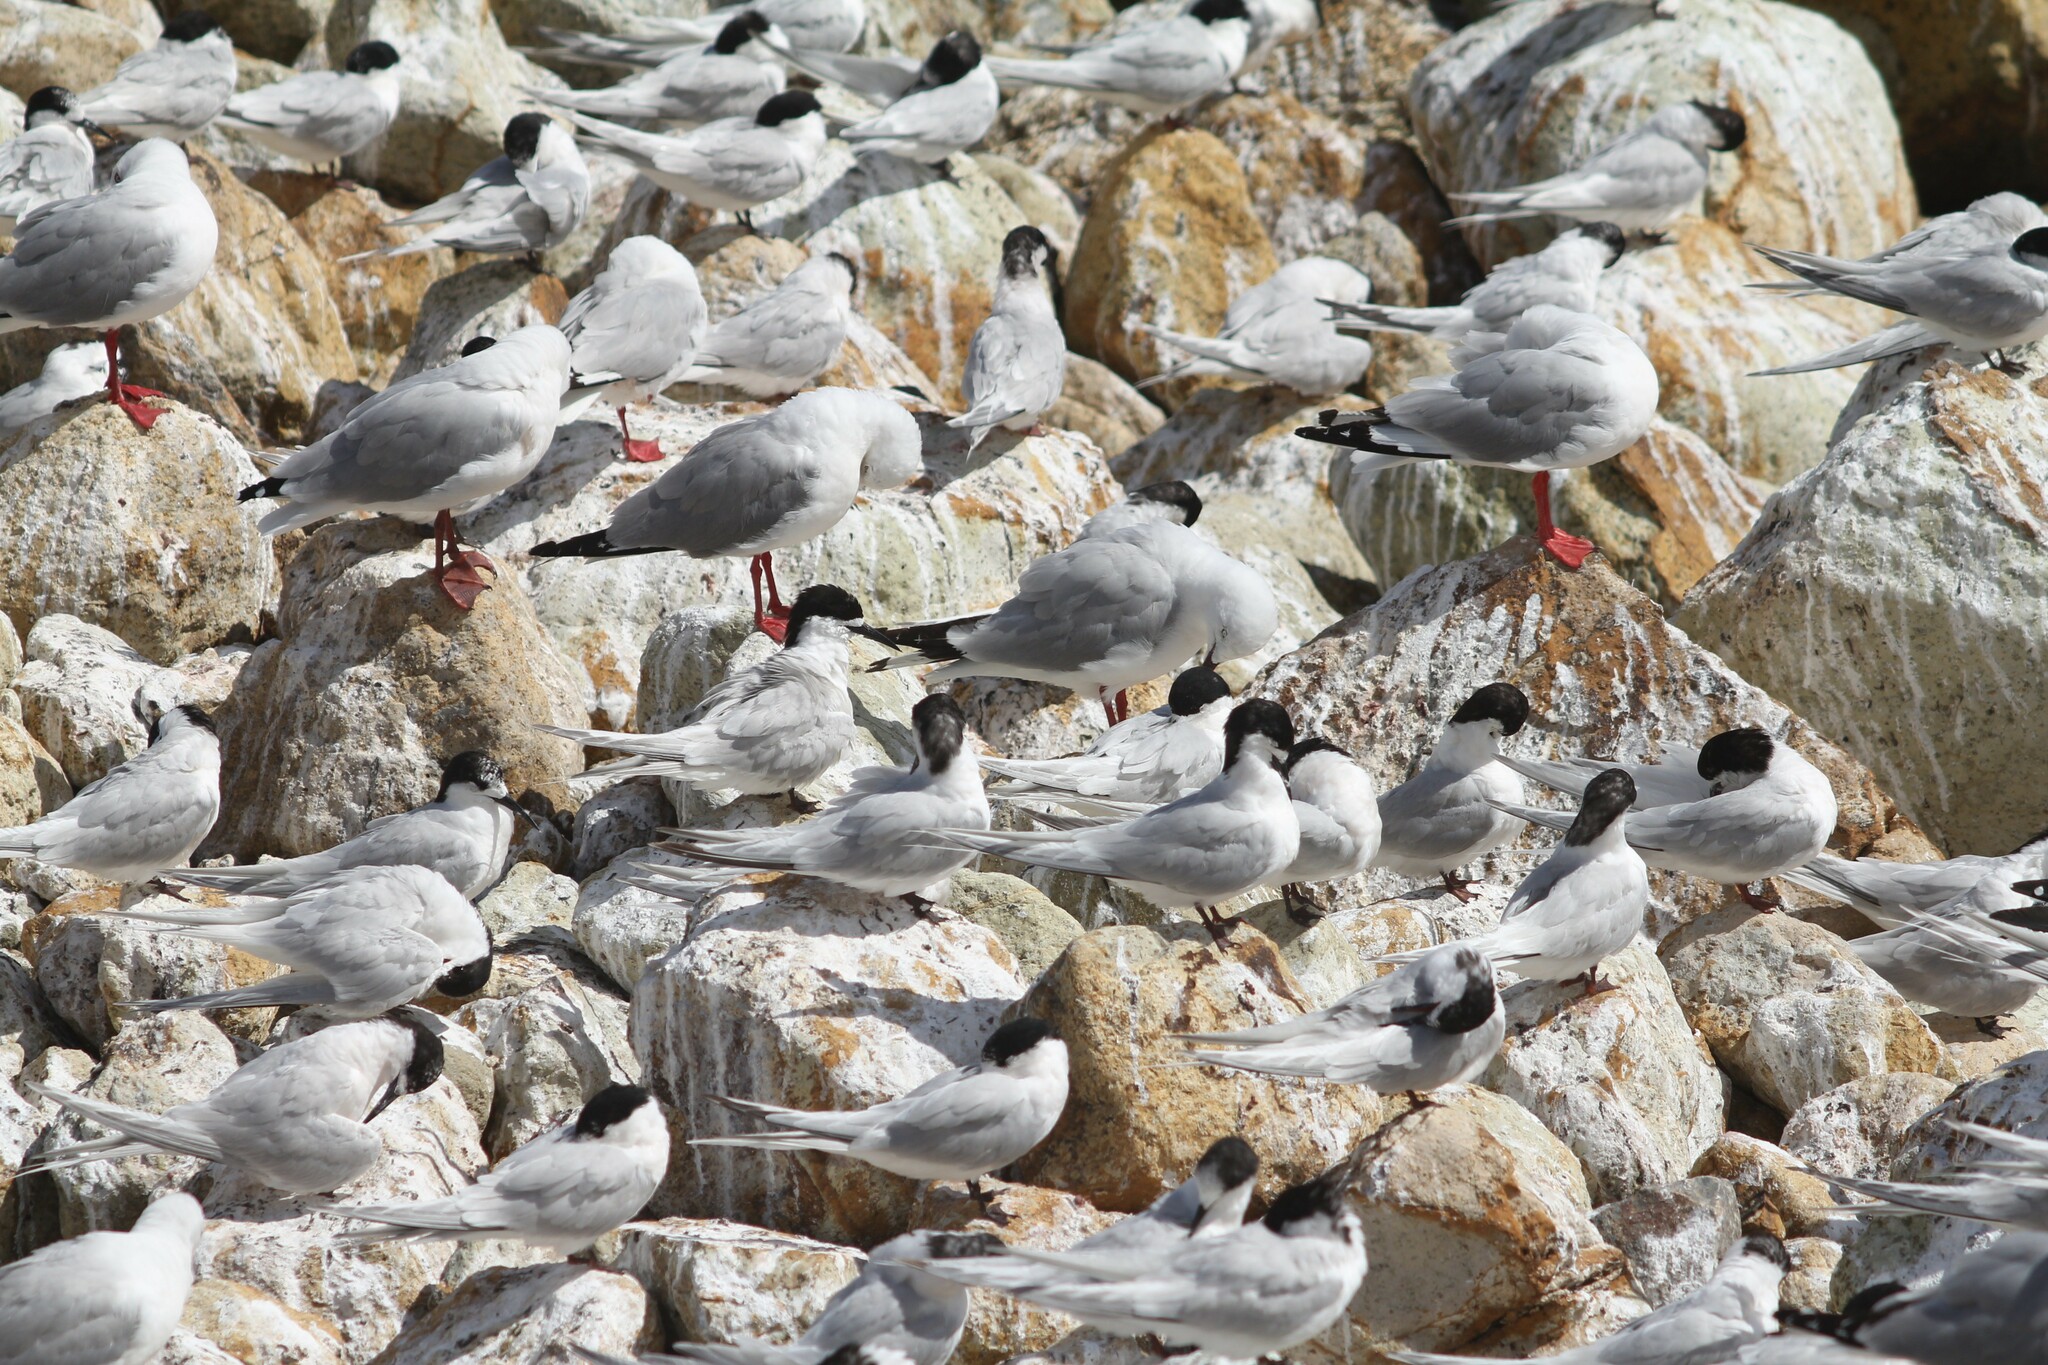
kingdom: Animalia
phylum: Chordata
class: Aves
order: Charadriiformes
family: Laridae
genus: Sterna
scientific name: Sterna striata
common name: White-fronted tern
